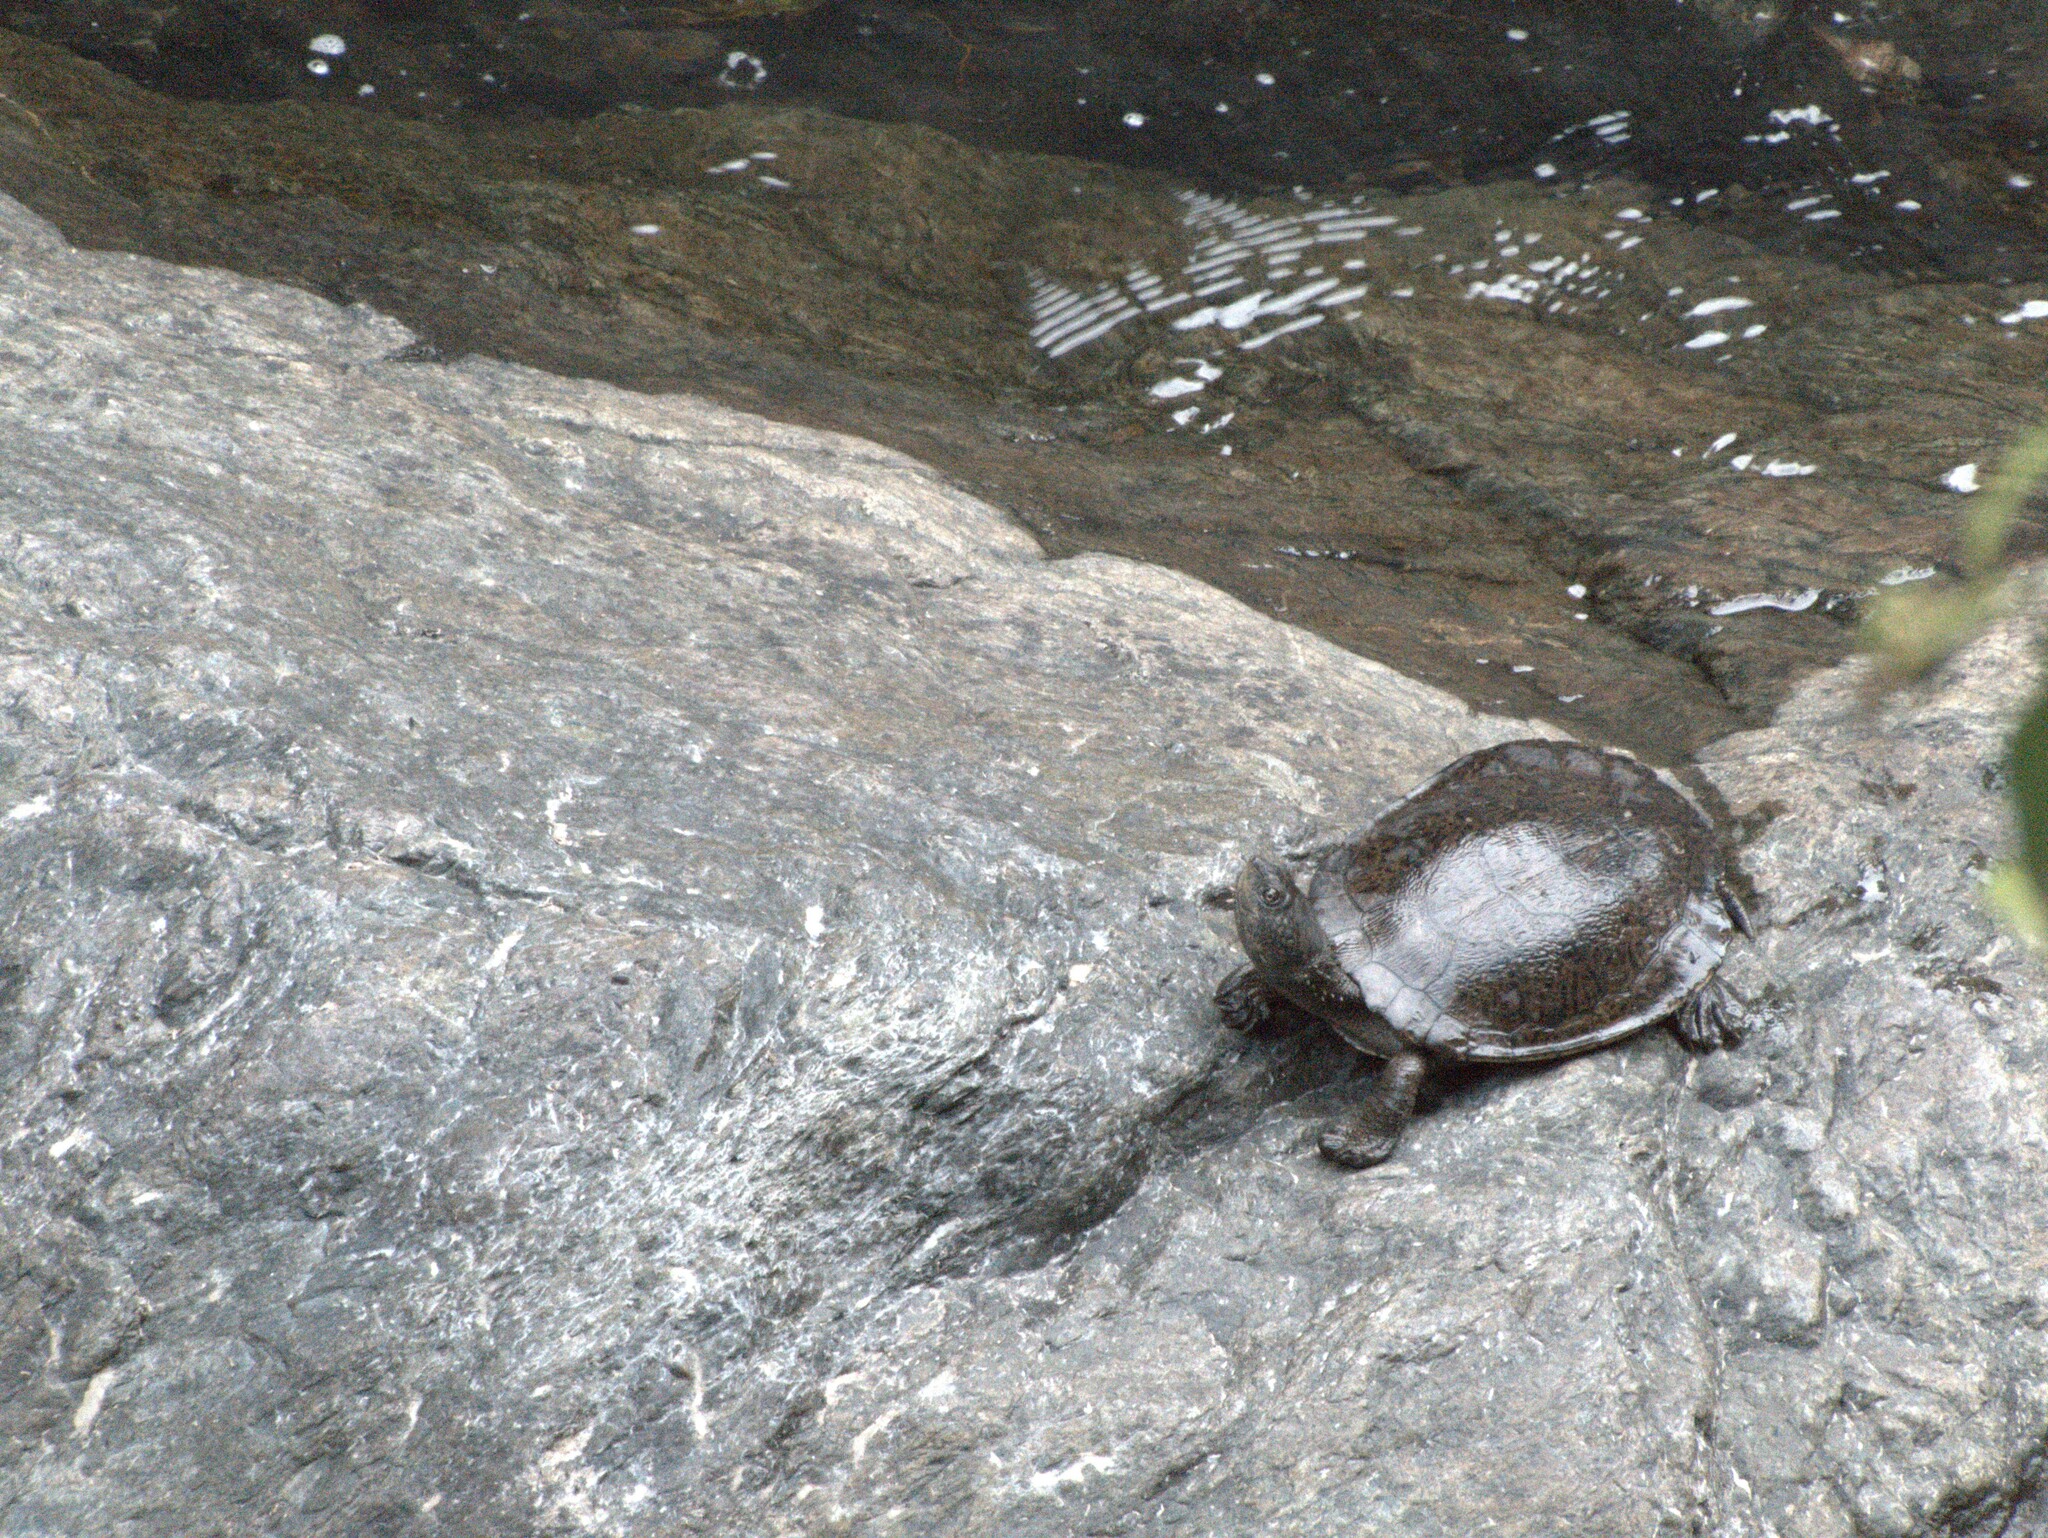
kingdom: Animalia
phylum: Chordata
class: Testudines
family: Chelidae
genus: Myuchelys
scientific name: Myuchelys latisternum
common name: Serrated snapping turtle
